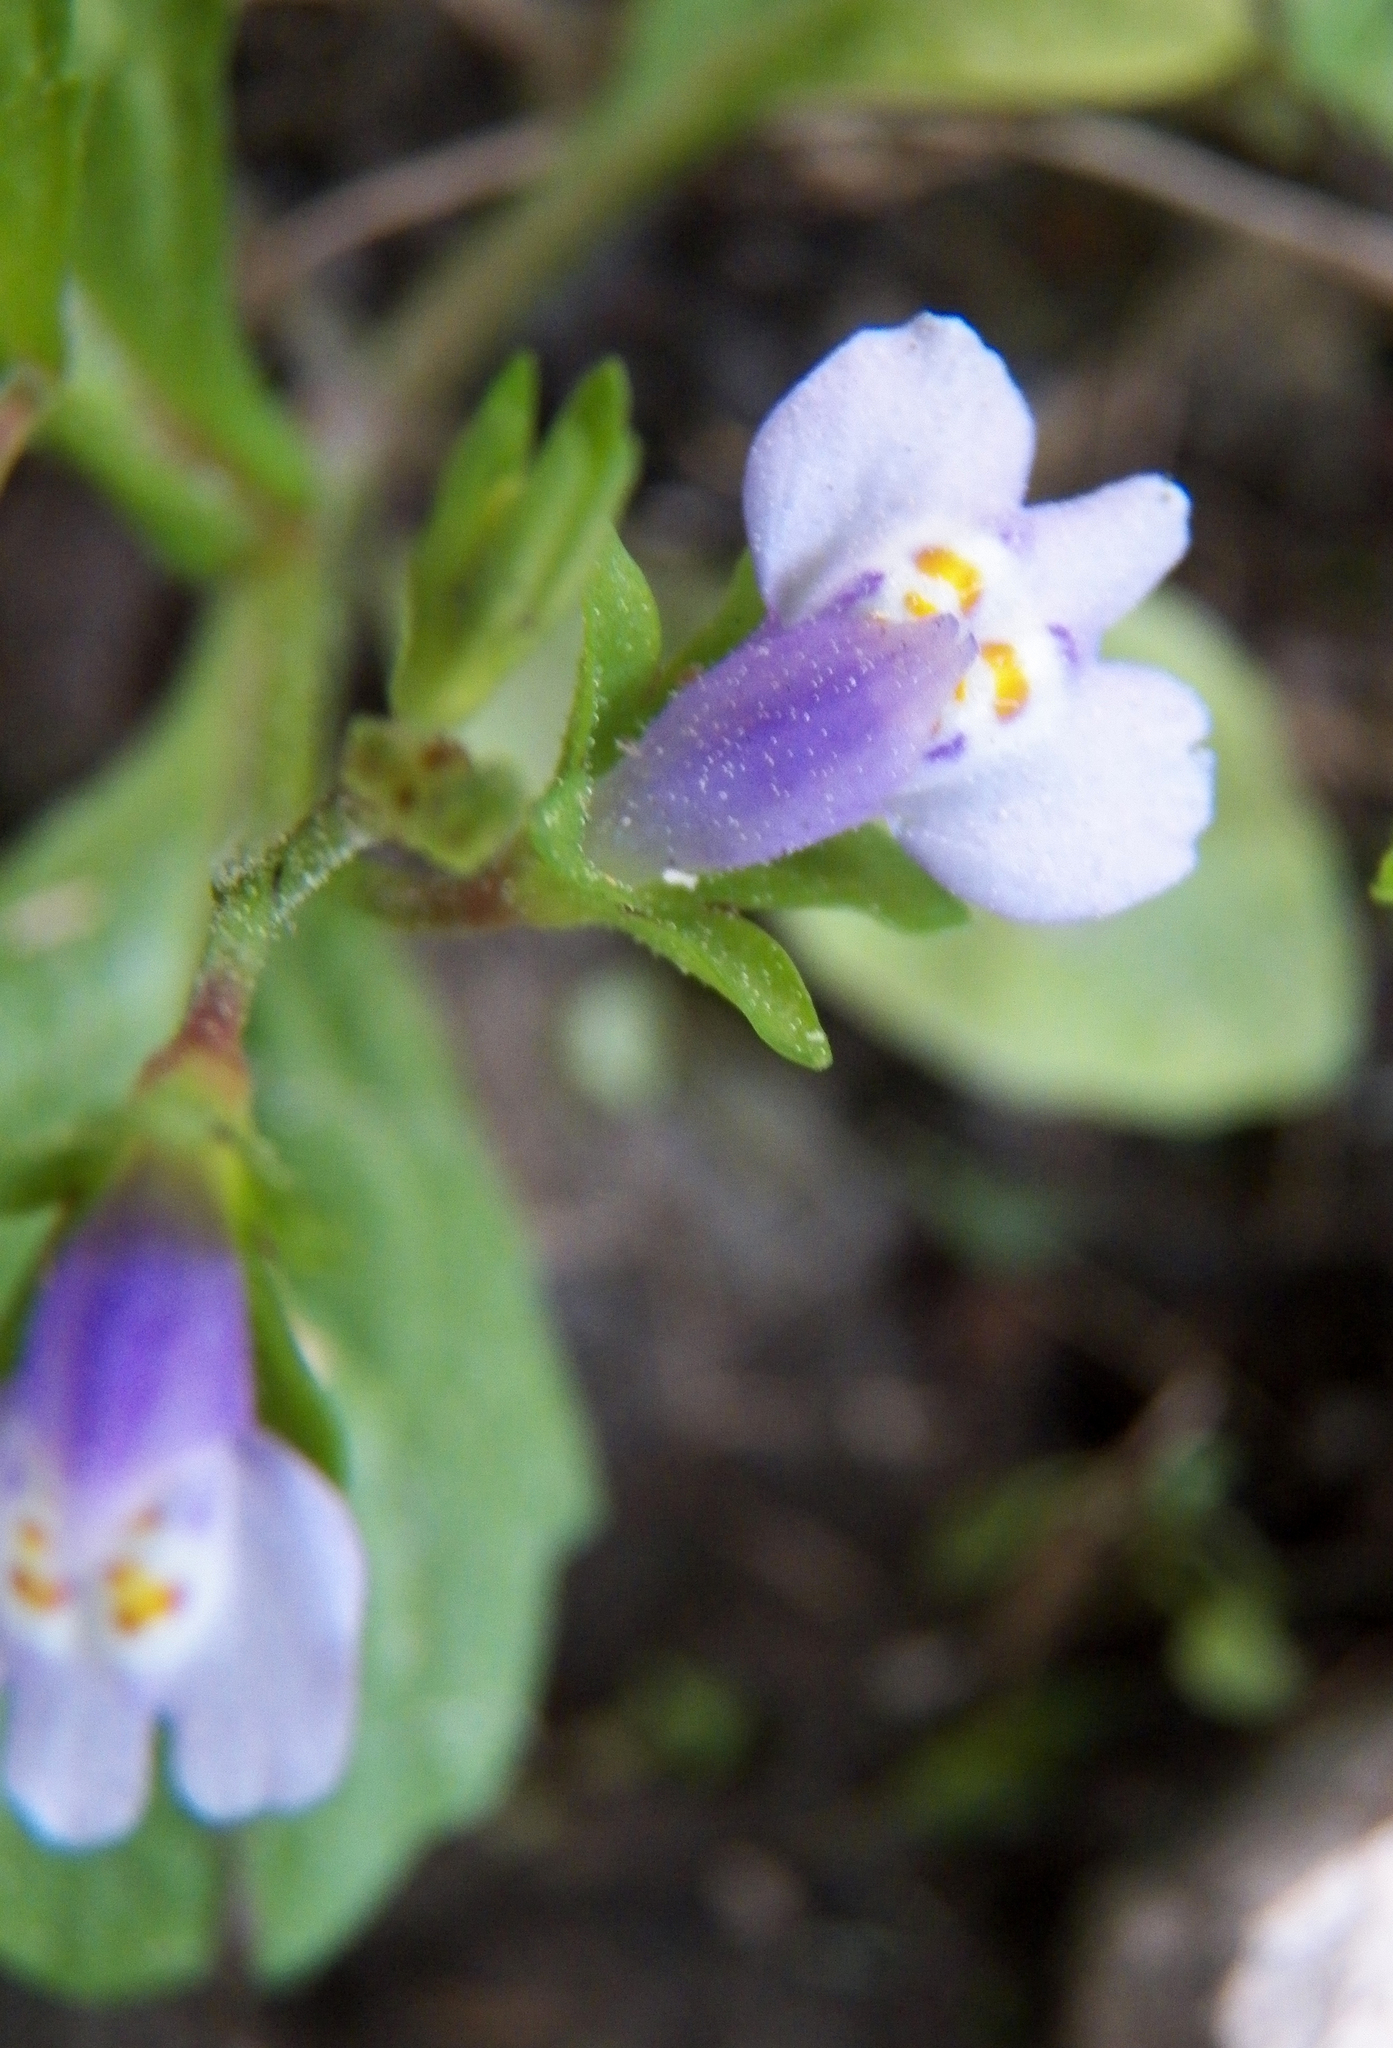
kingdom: Plantae
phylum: Tracheophyta
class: Magnoliopsida
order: Lamiales
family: Mazaceae
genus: Mazus
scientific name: Mazus pumilus
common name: Japanese mazus
